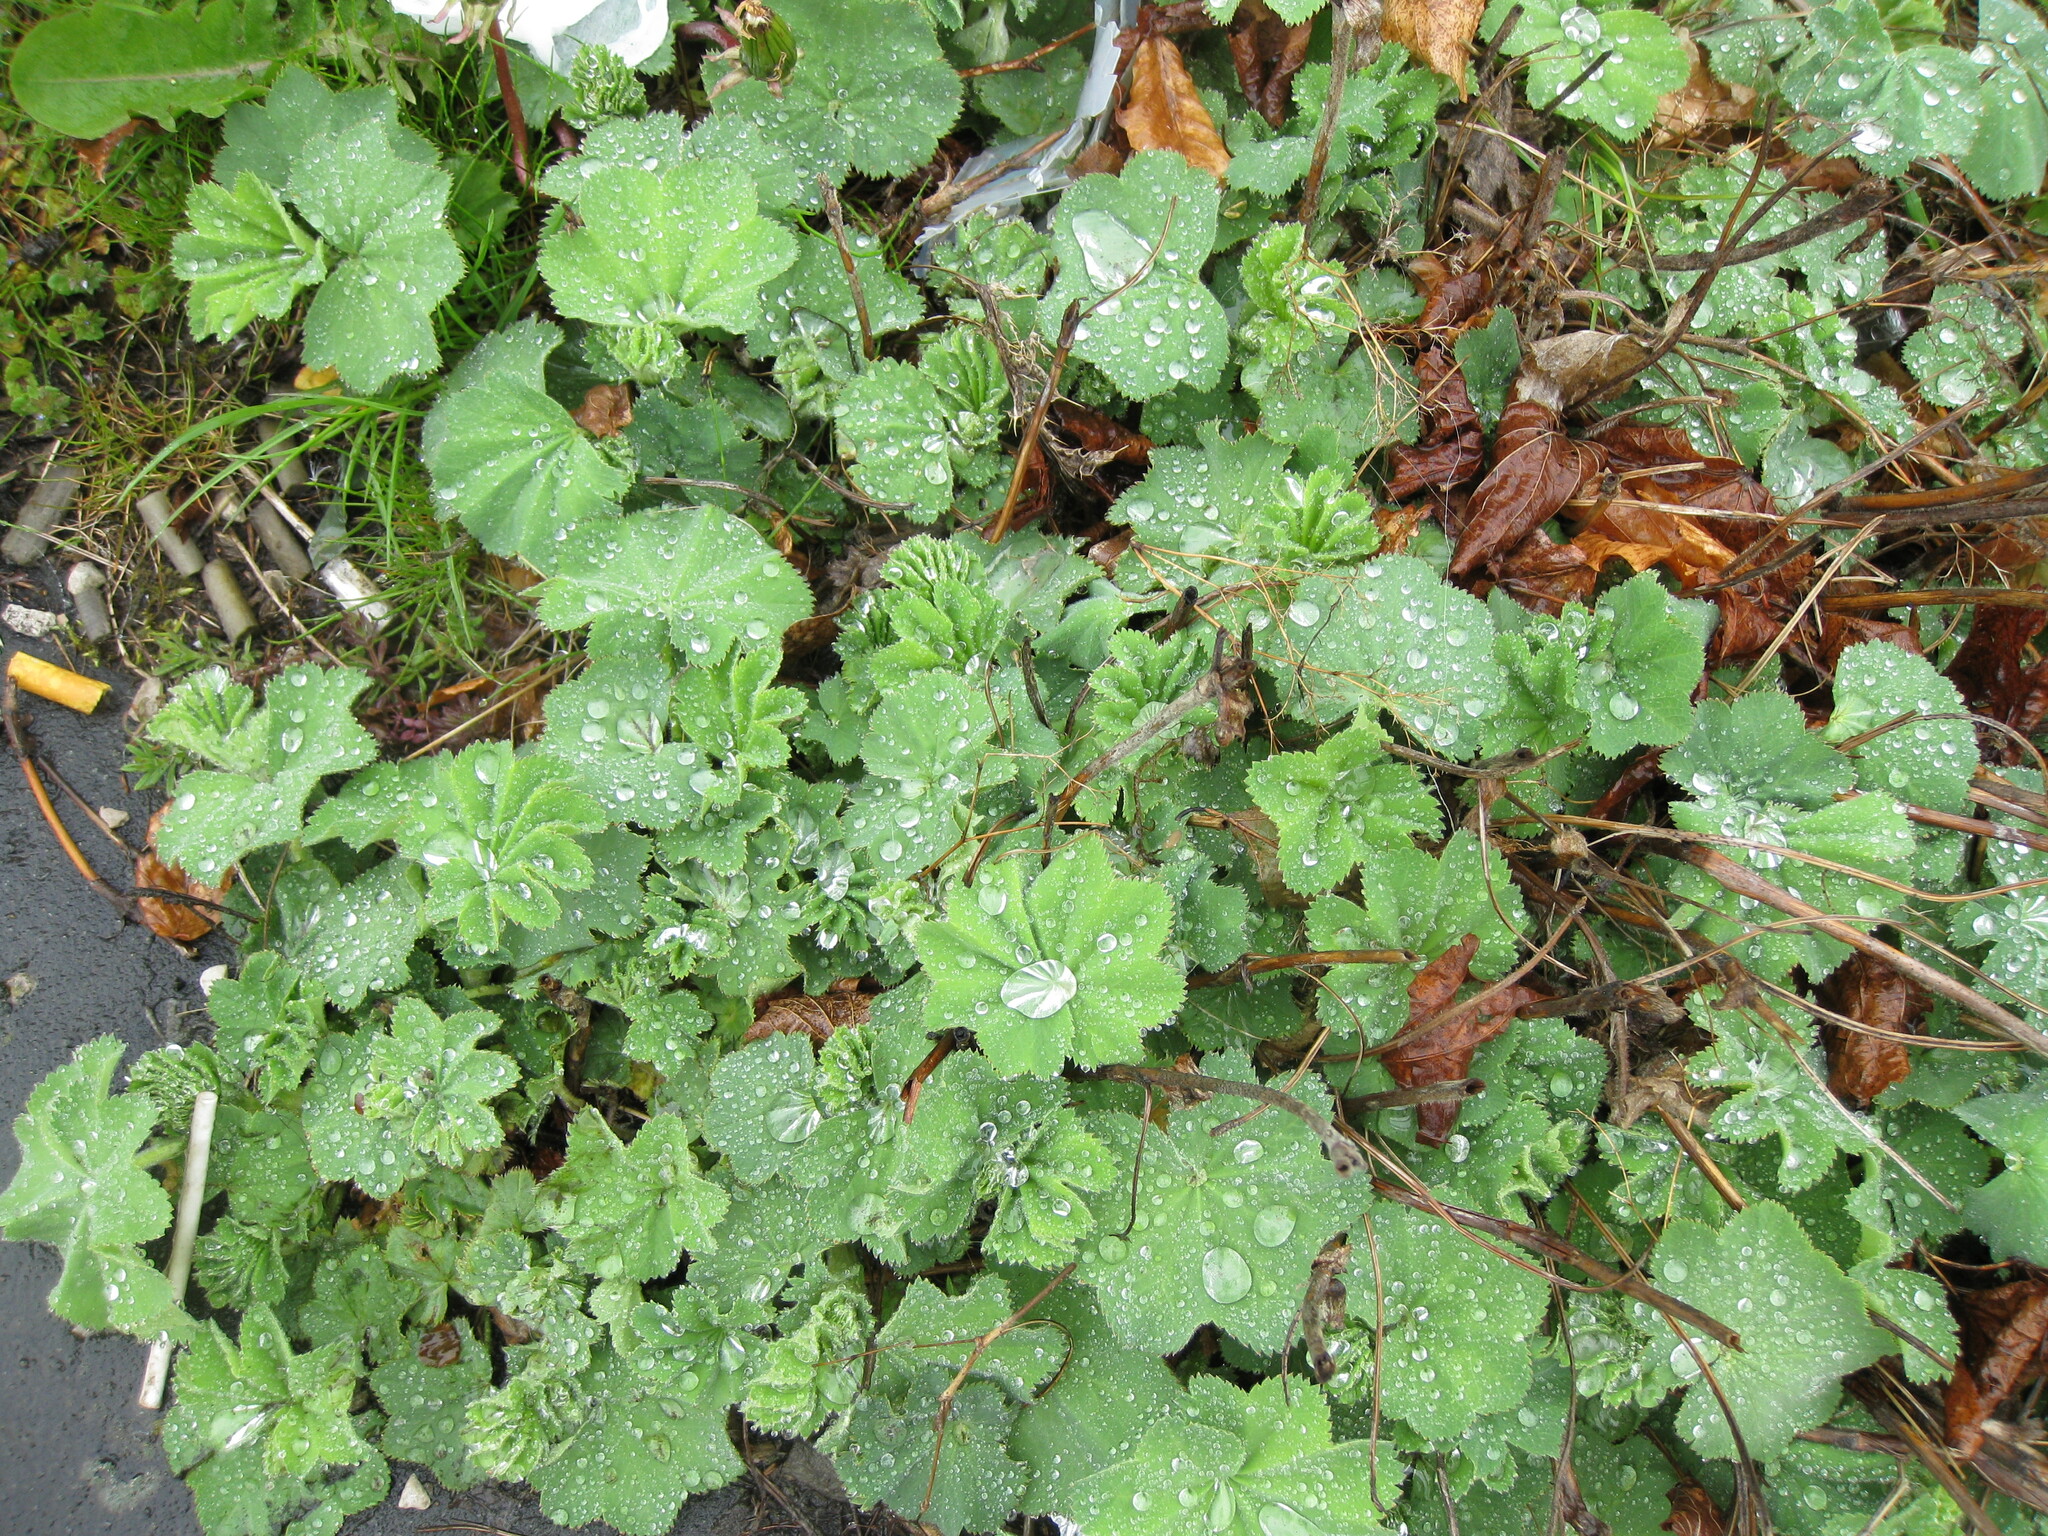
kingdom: Plantae
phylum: Tracheophyta
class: Magnoliopsida
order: Rosales
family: Rosaceae
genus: Alchemilla
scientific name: Alchemilla mollis
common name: Lady's-mantle
